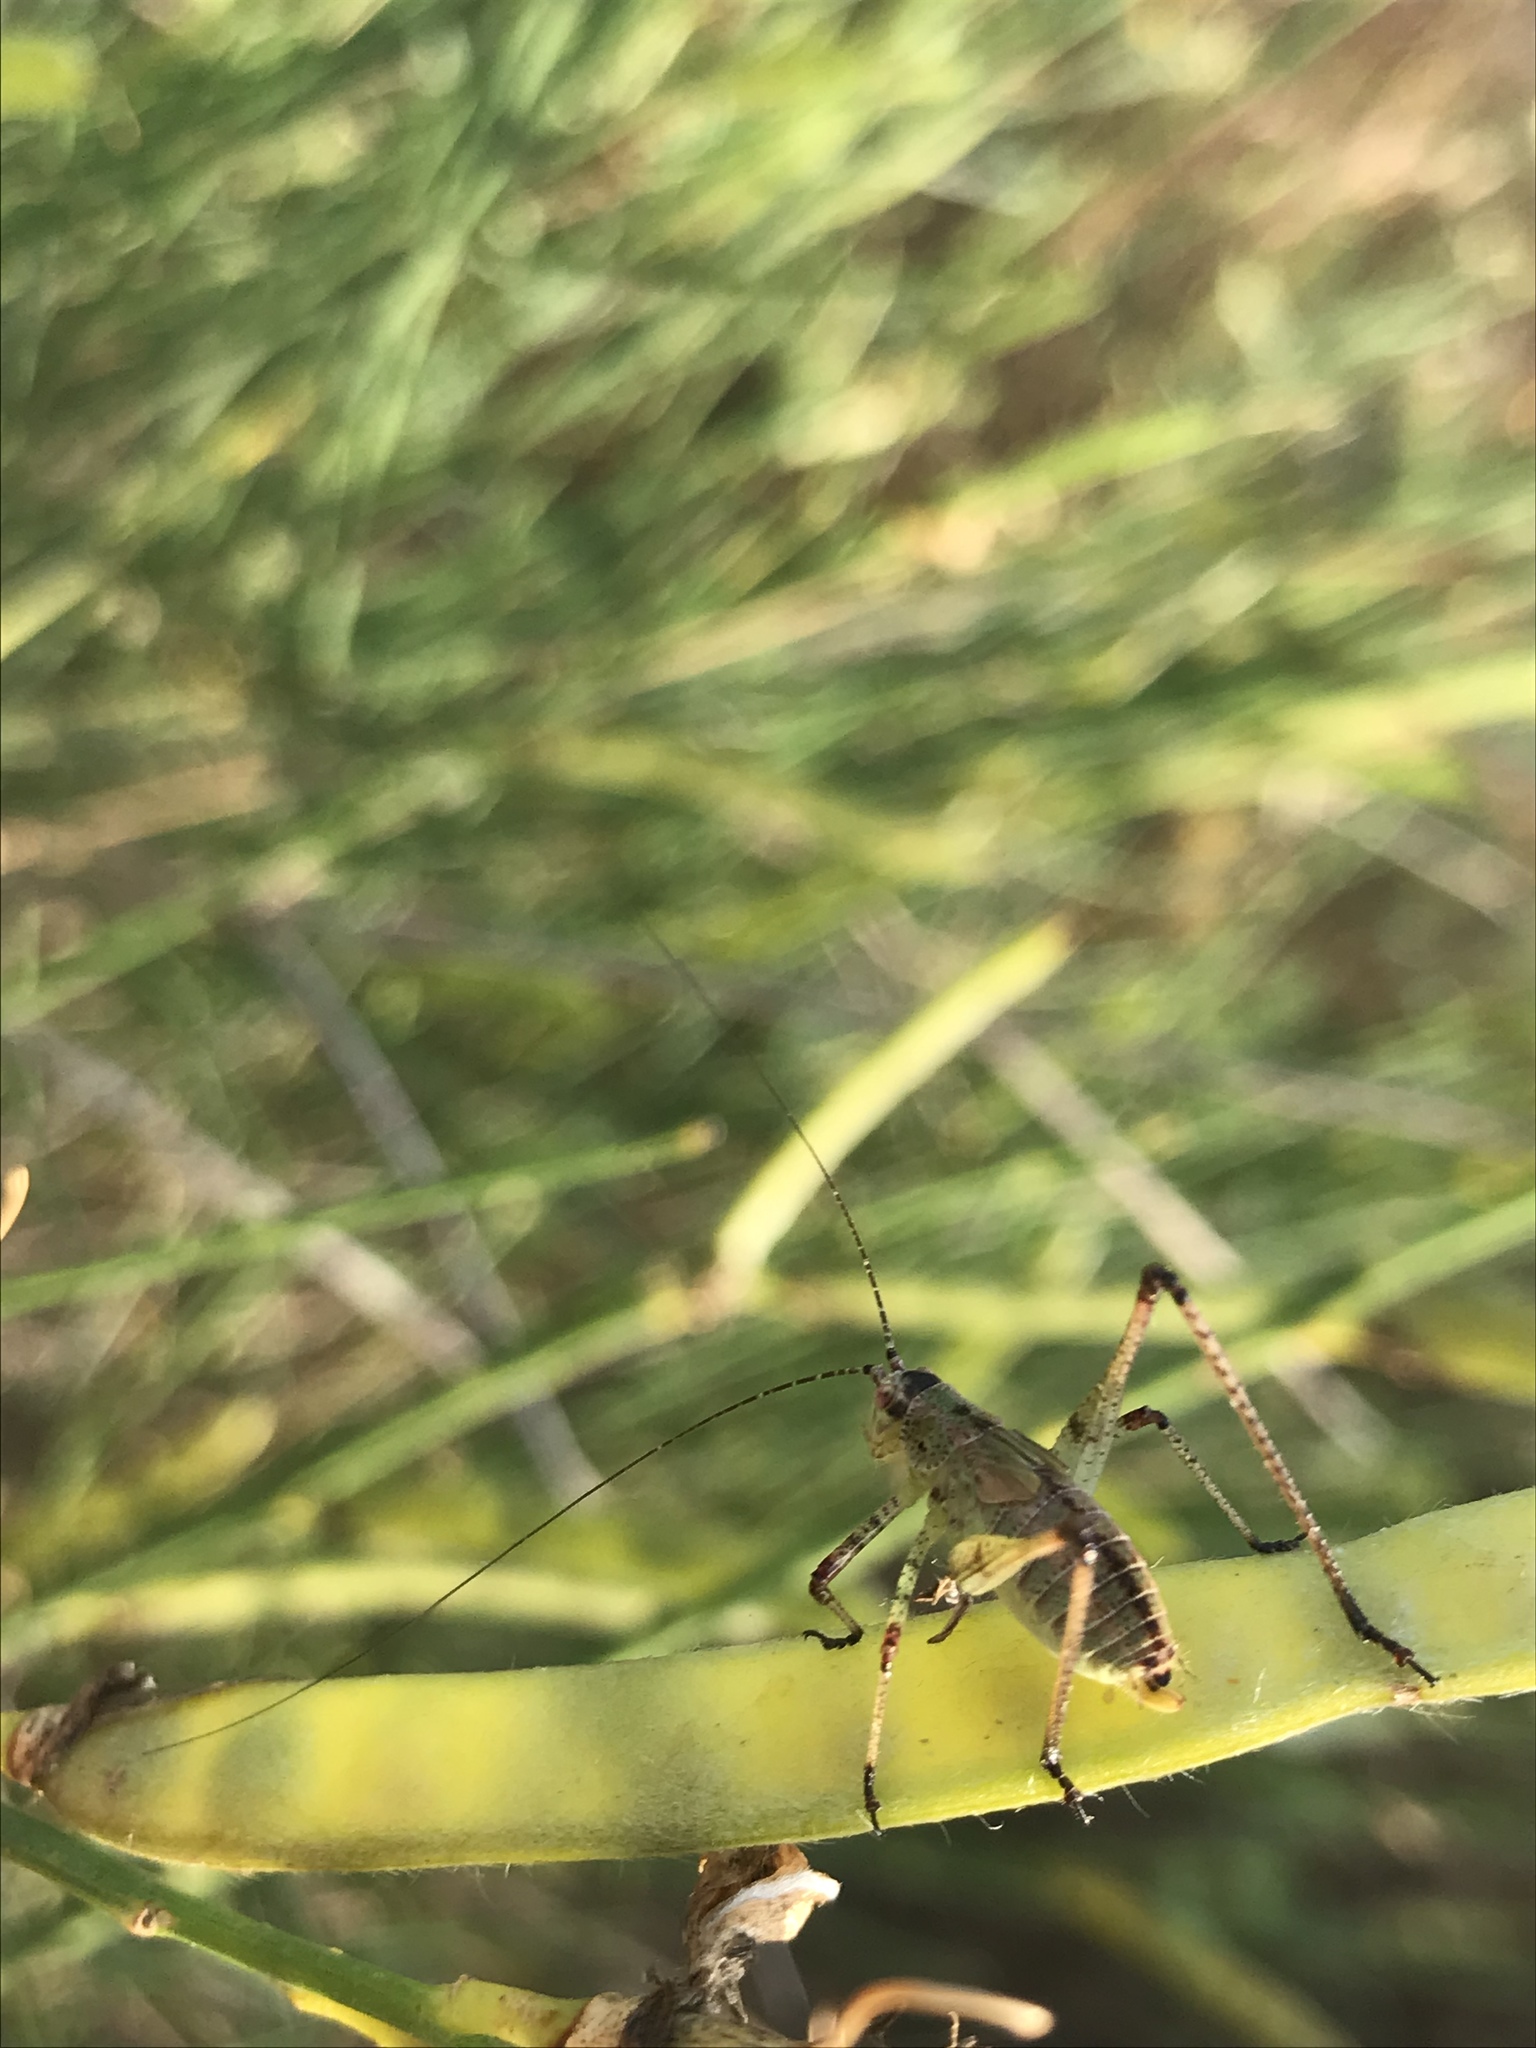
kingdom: Animalia
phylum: Arthropoda
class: Insecta
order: Orthoptera
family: Tettigoniidae
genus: Phaneroptera
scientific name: Phaneroptera nana
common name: Southern sickle bush-cricket
